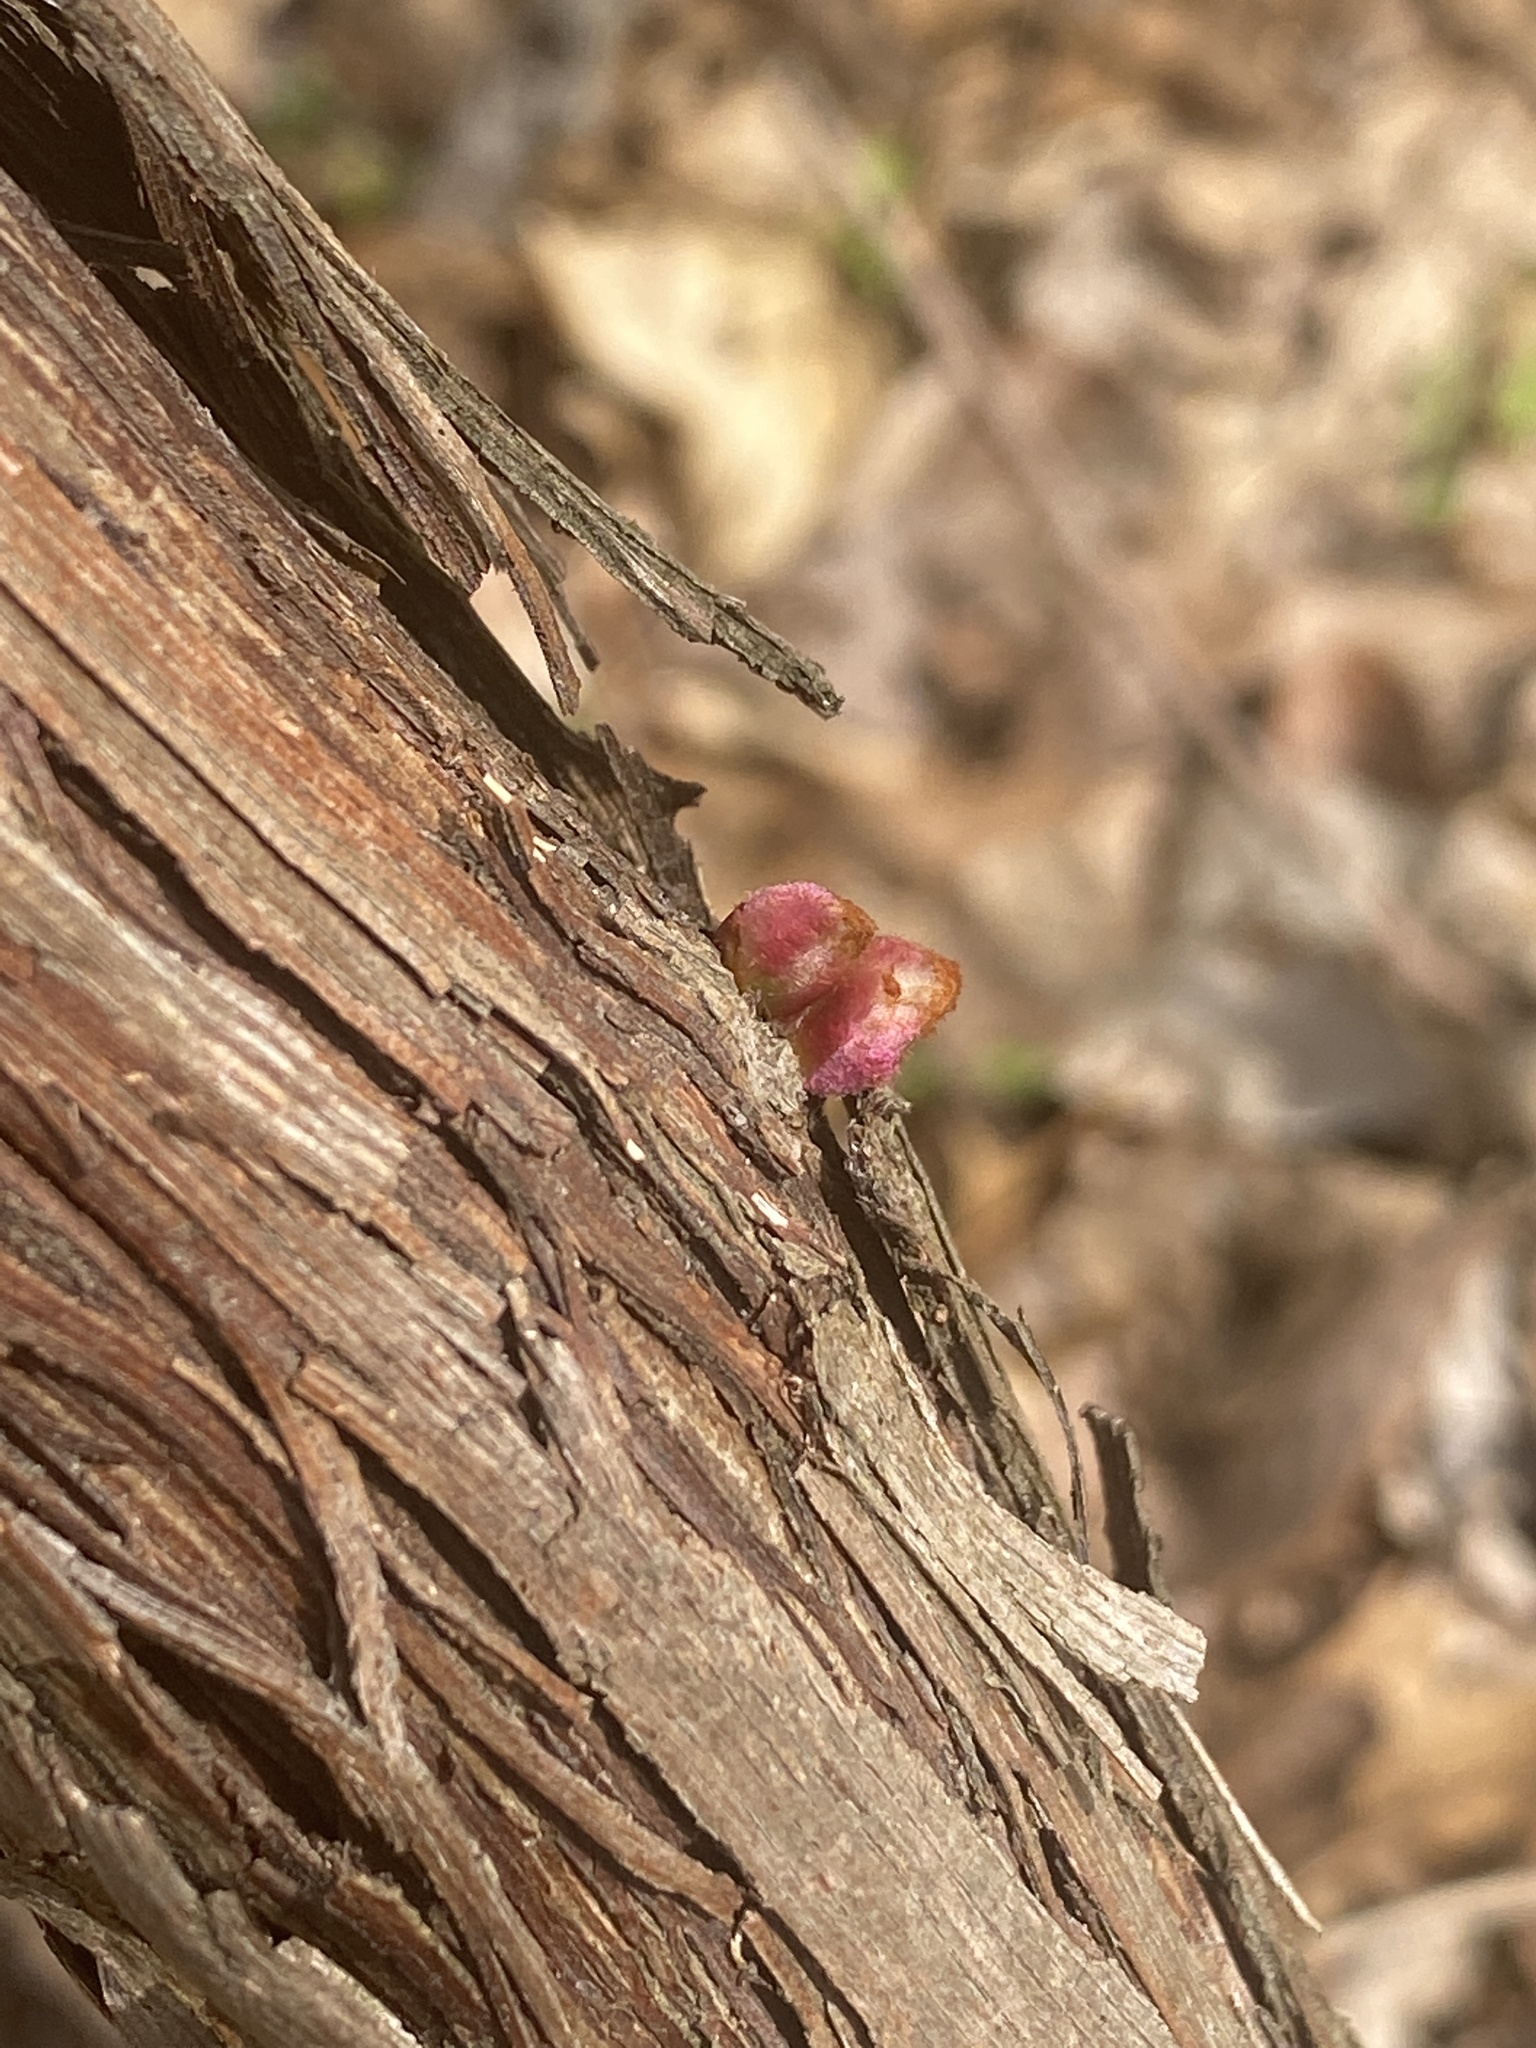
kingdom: Plantae
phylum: Tracheophyta
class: Magnoliopsida
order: Vitales
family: Vitaceae
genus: Vitis
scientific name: Vitis
